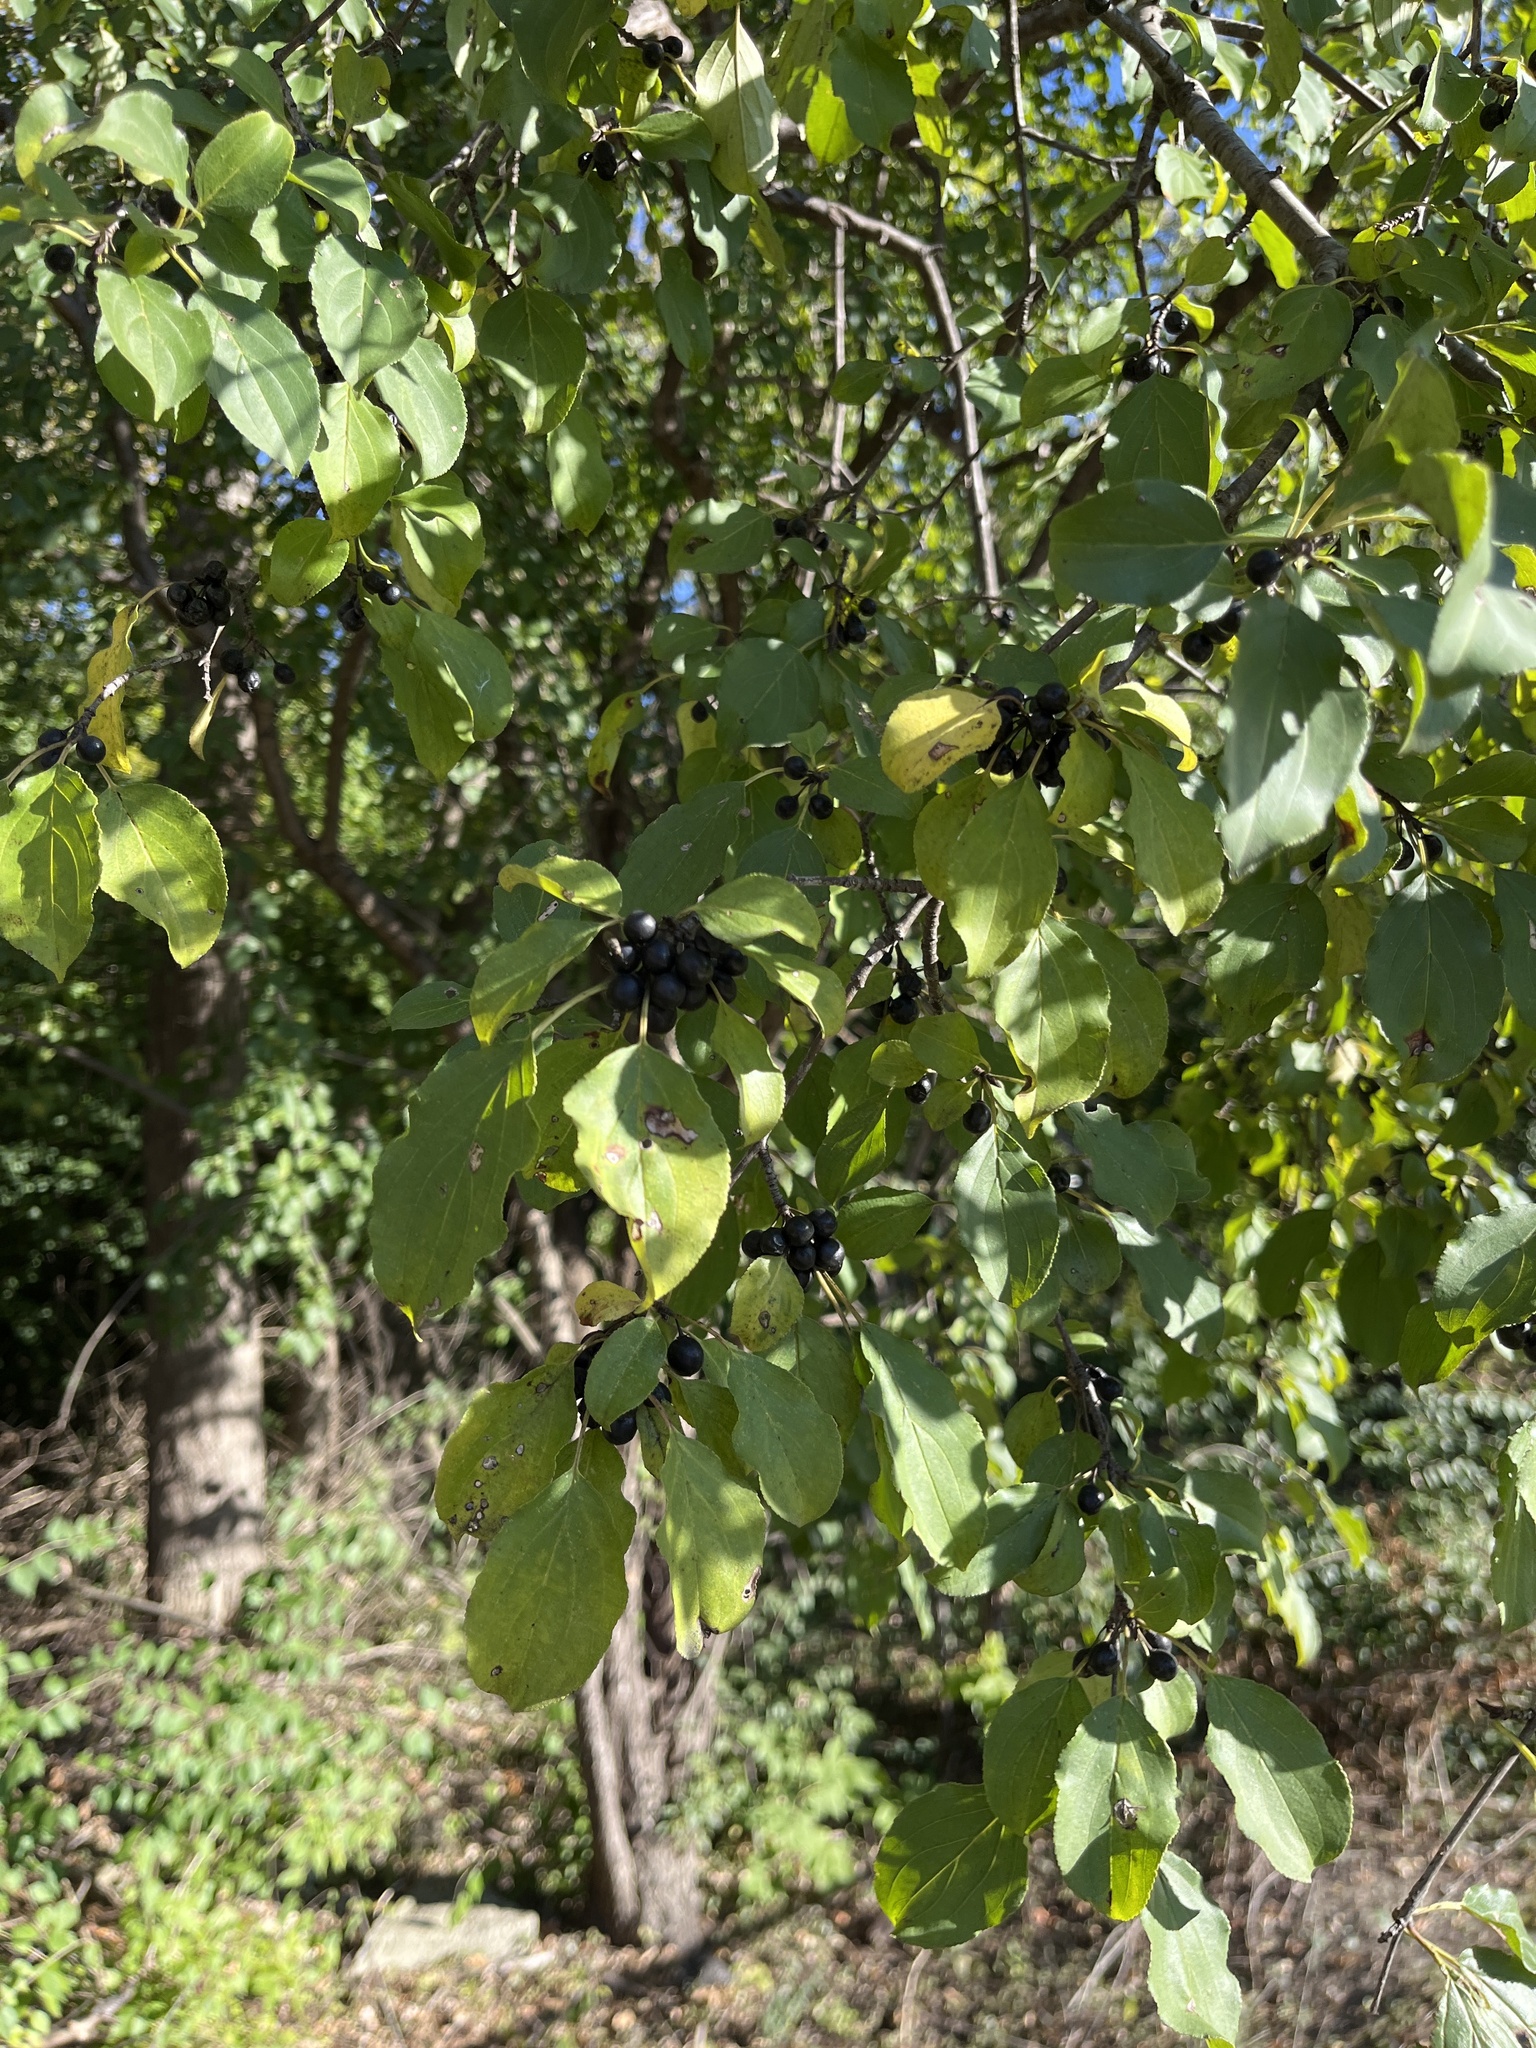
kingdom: Plantae
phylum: Tracheophyta
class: Magnoliopsida
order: Rosales
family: Rhamnaceae
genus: Rhamnus
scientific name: Rhamnus cathartica
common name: Common buckthorn
